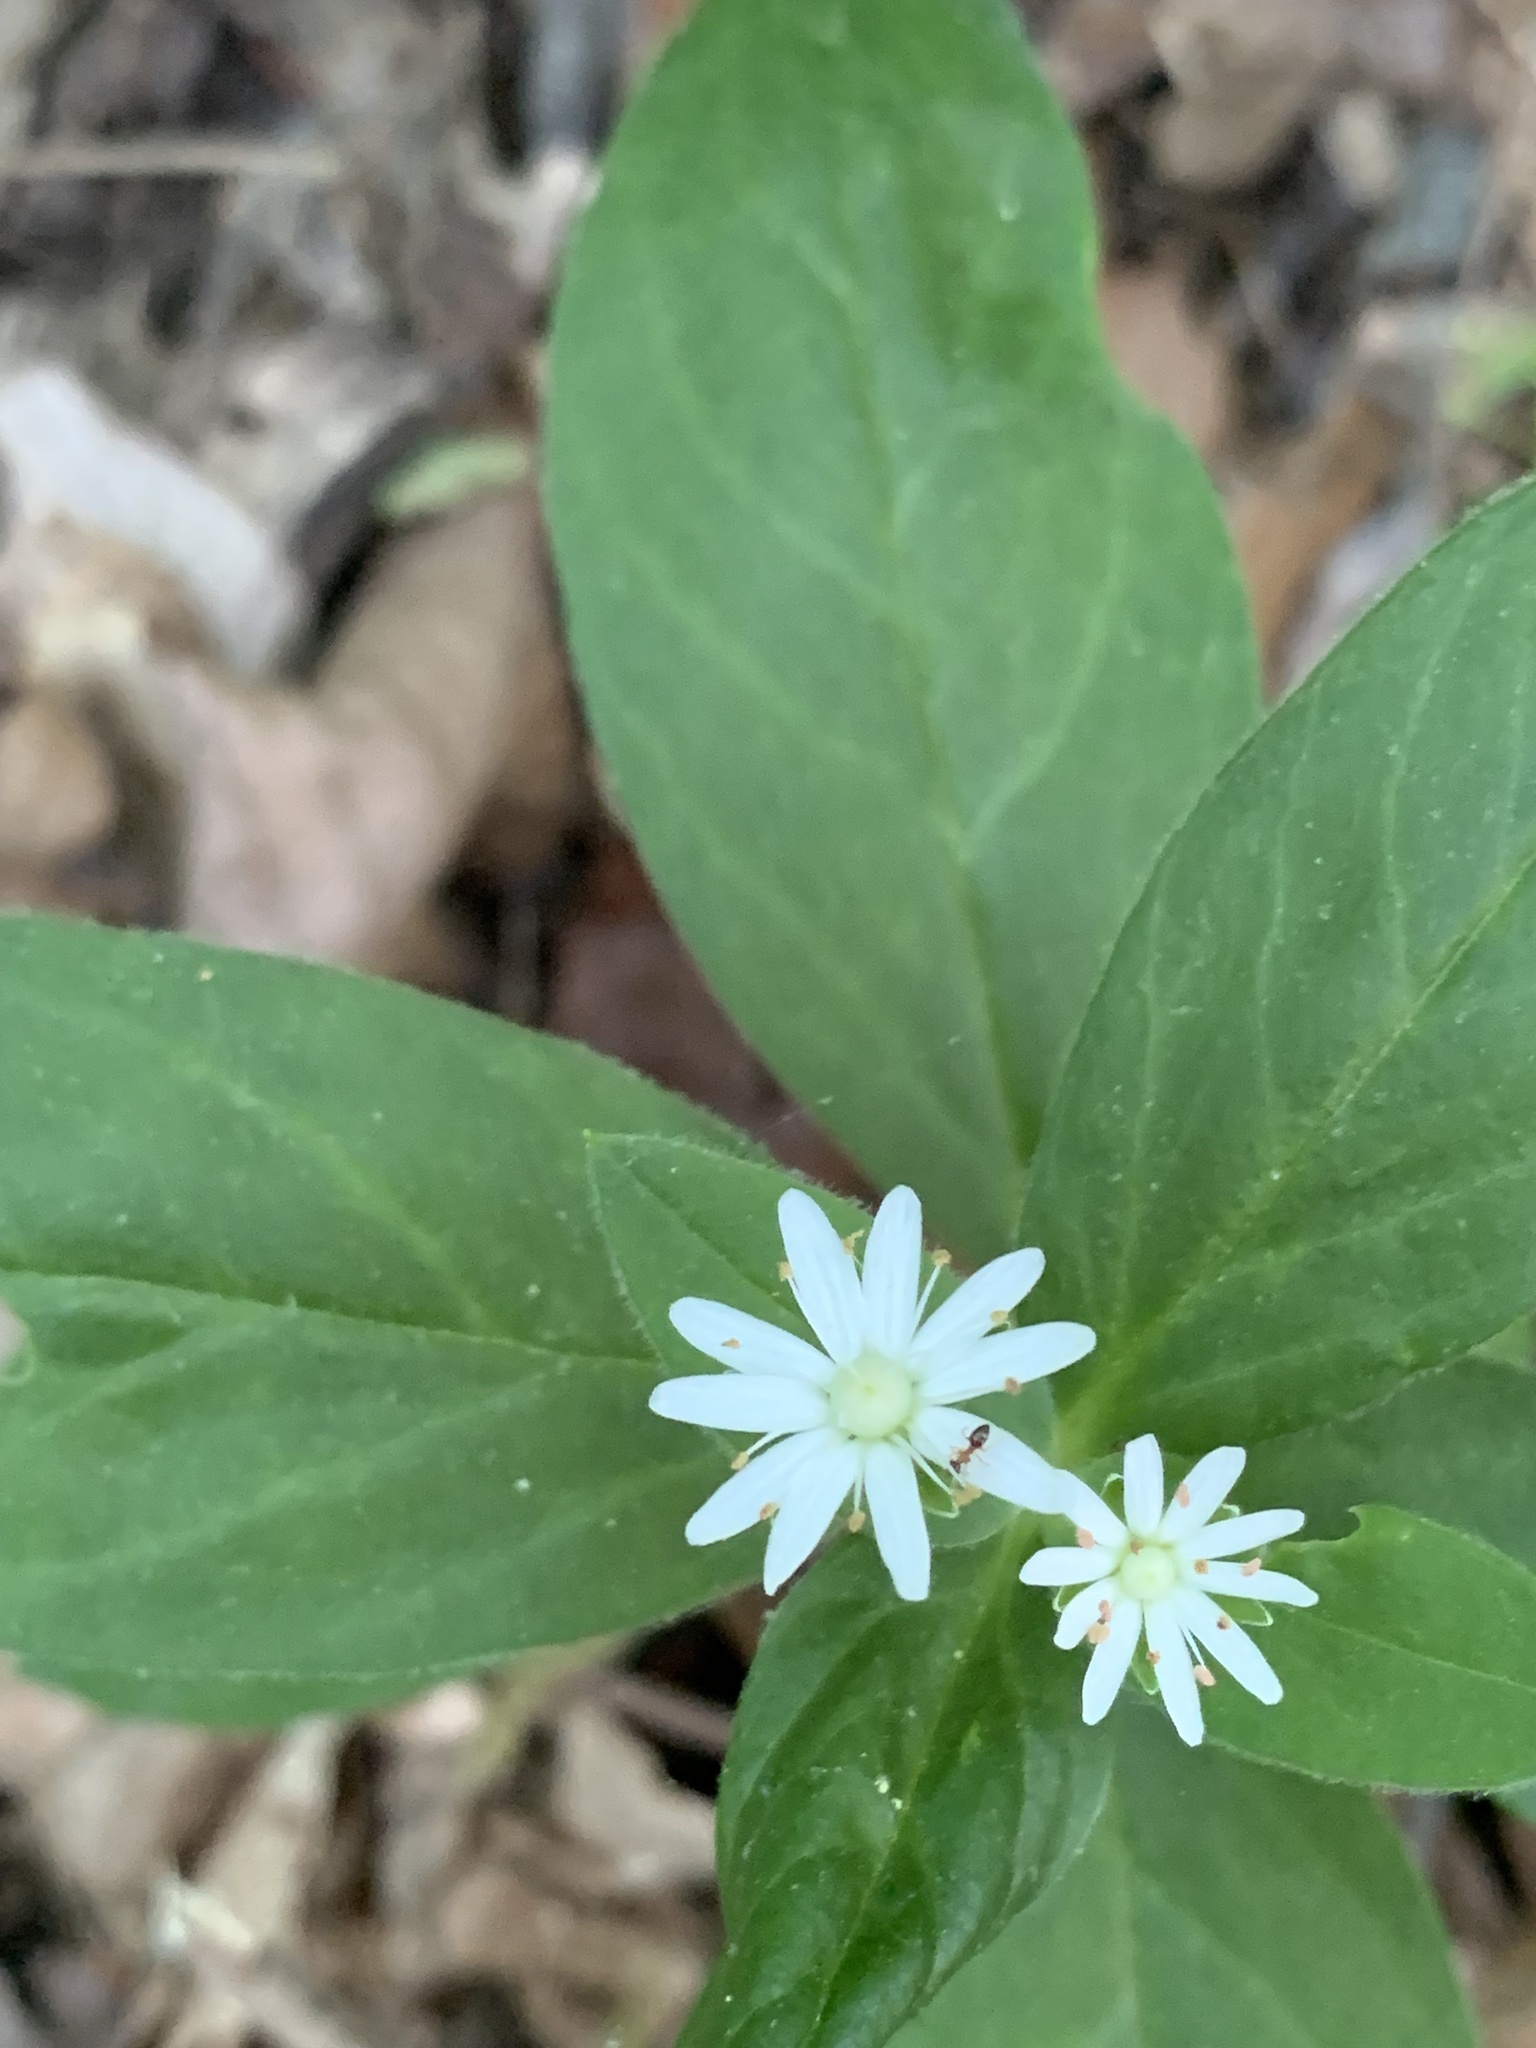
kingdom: Plantae
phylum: Tracheophyta
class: Magnoliopsida
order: Caryophyllales
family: Caryophyllaceae
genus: Stellaria
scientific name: Stellaria pubera
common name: Star chickweed
